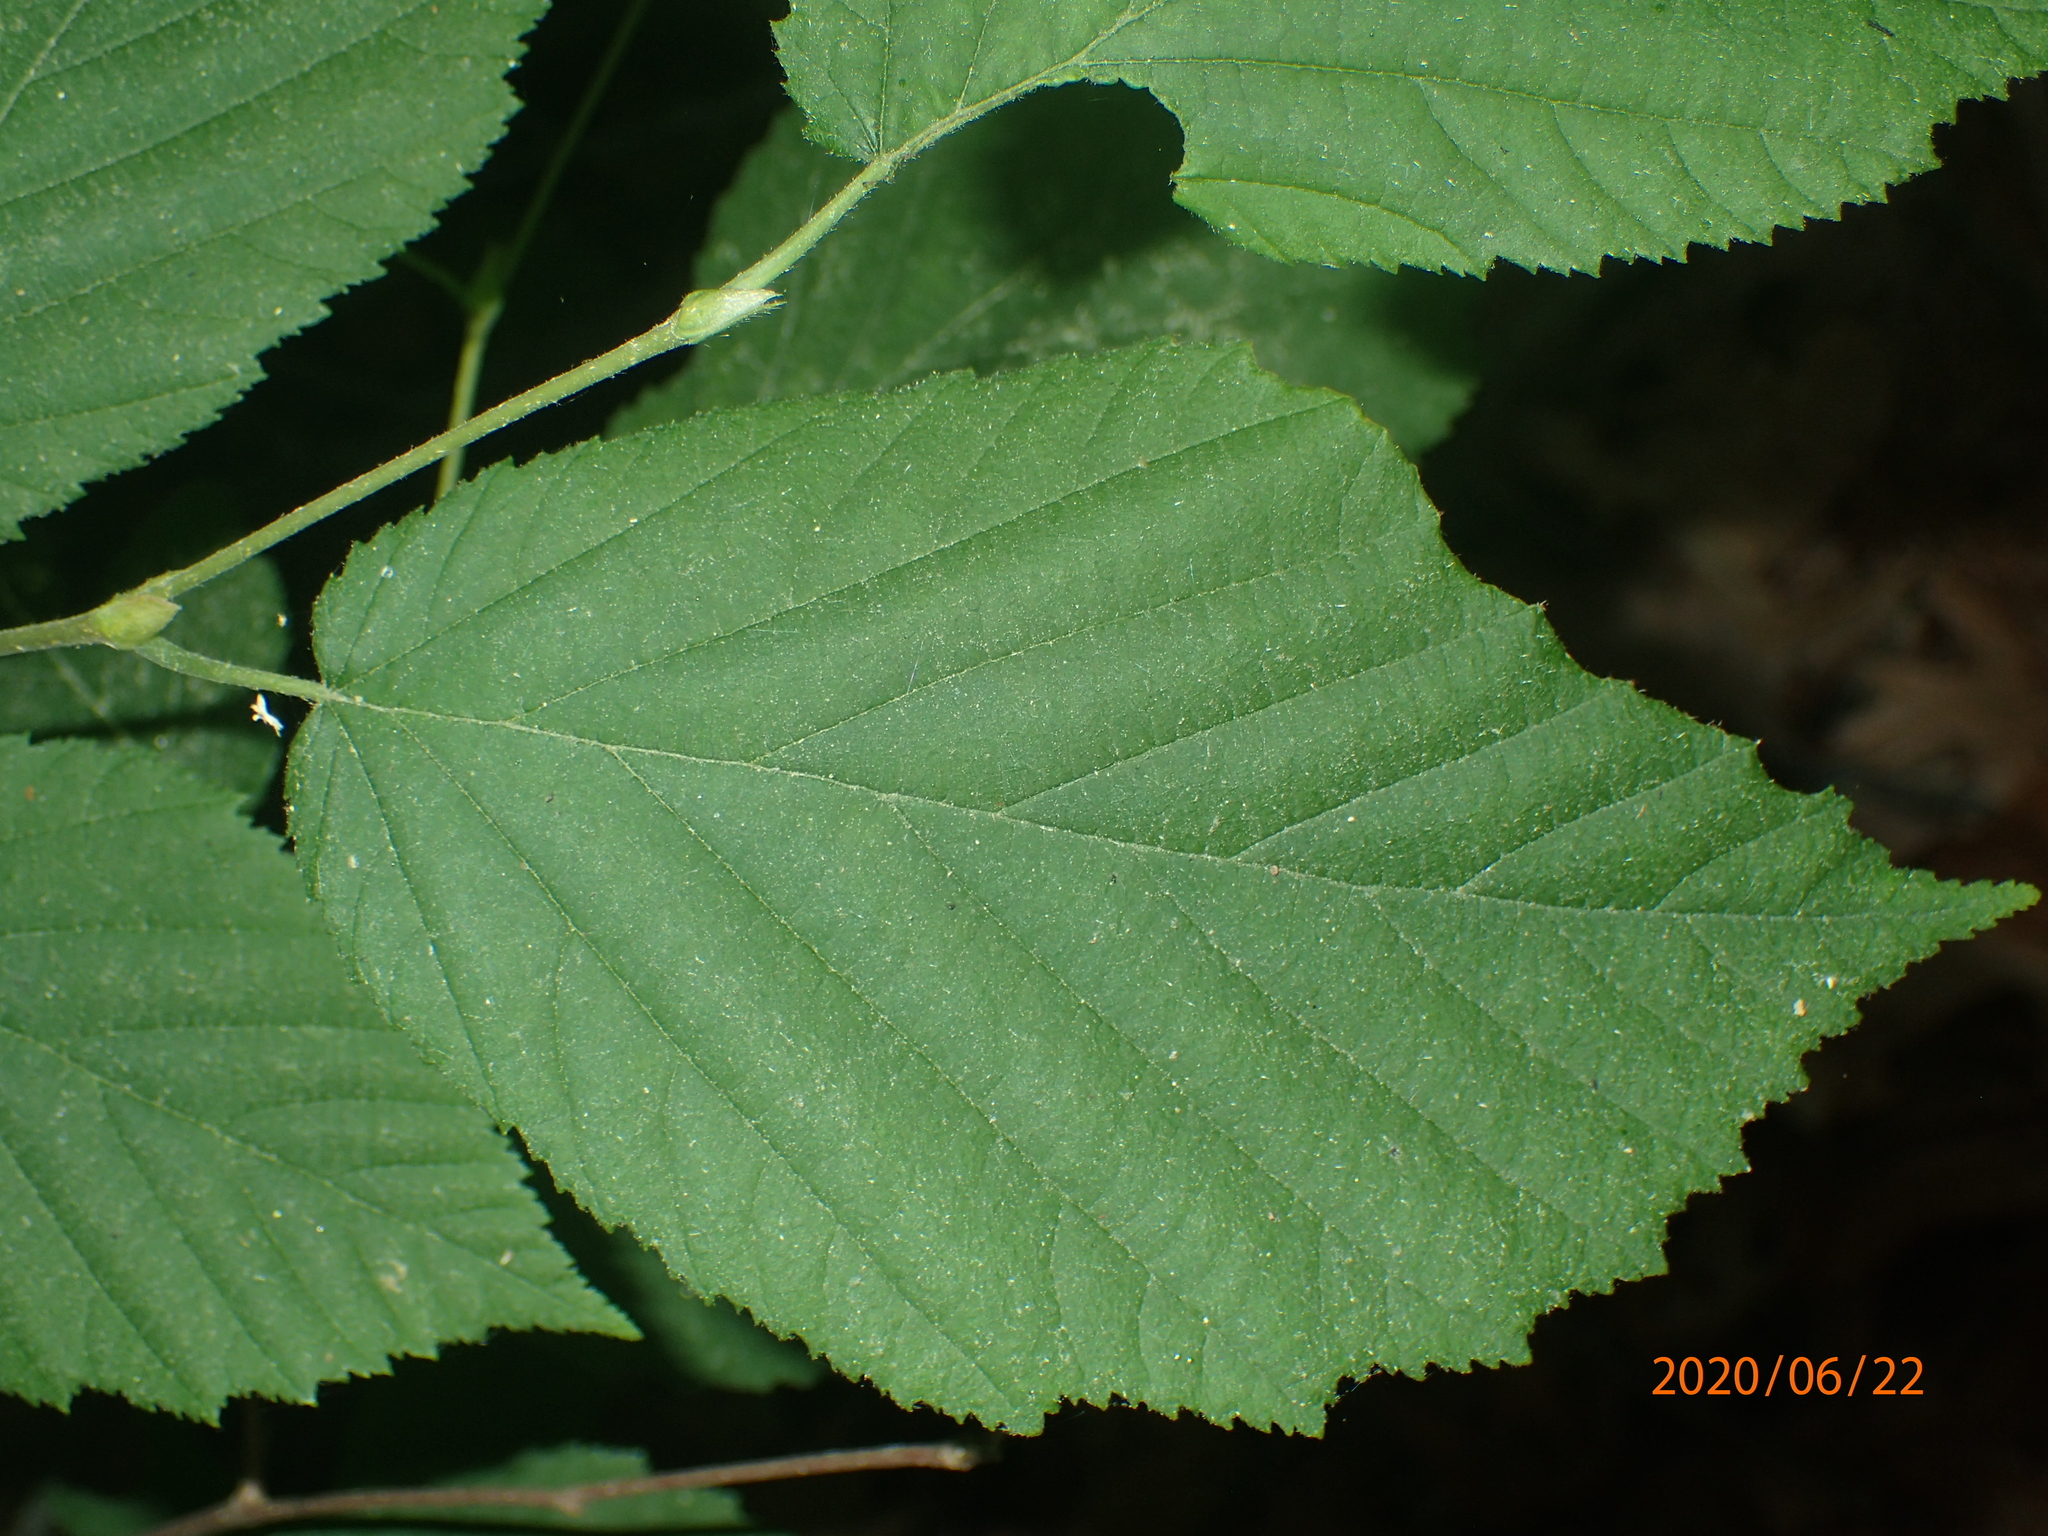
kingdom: Plantae
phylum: Tracheophyta
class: Magnoliopsida
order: Fagales
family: Betulaceae
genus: Corylus
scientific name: Corylus cornuta
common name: Beaked hazel
